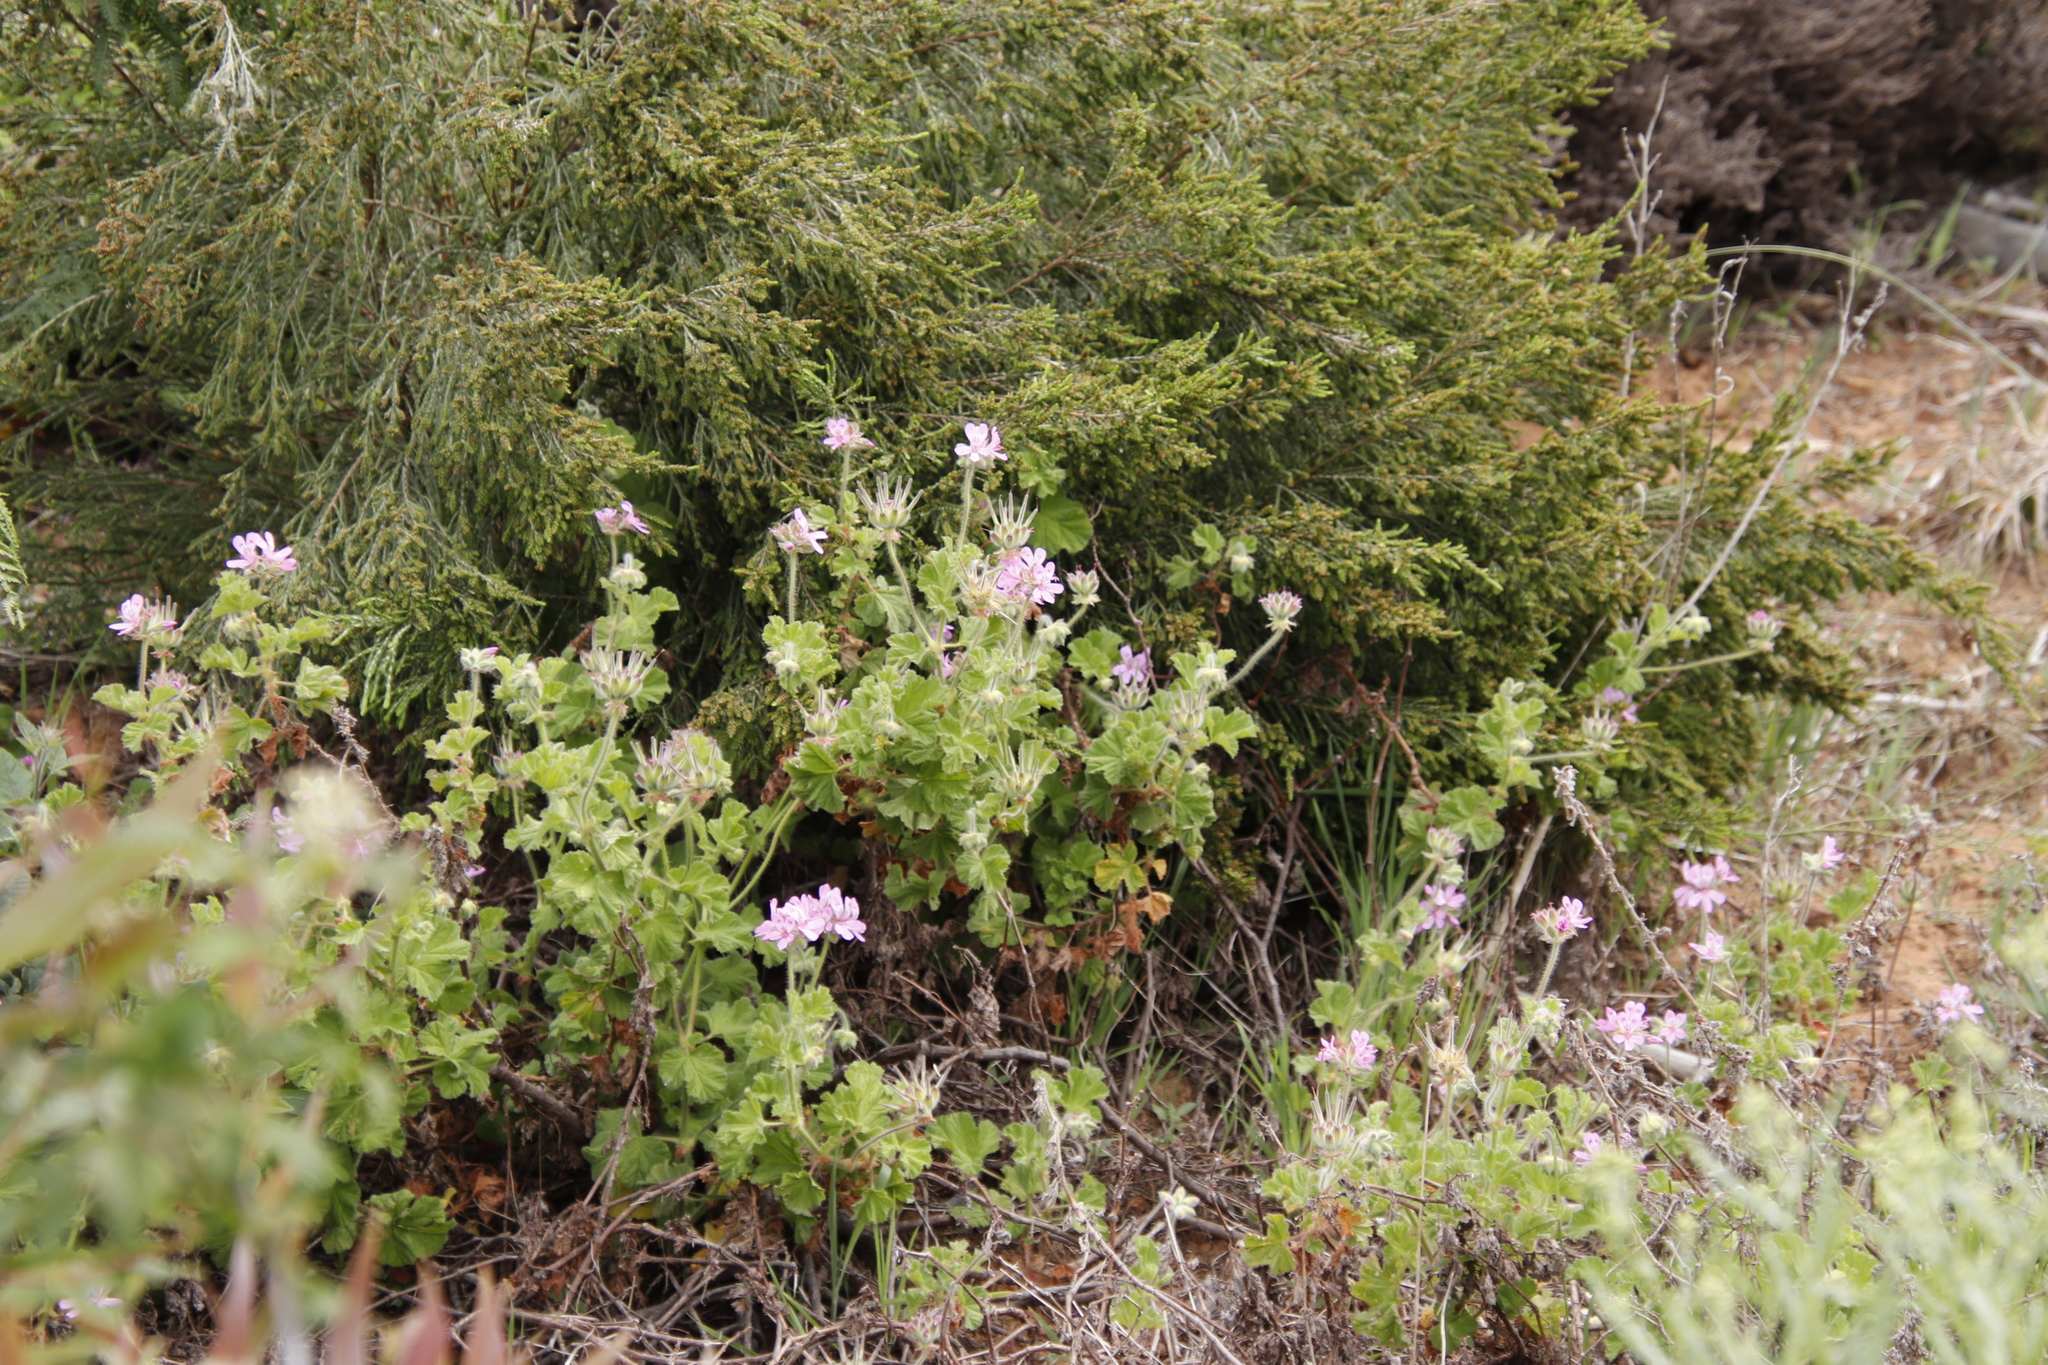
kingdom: Plantae
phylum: Tracheophyta
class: Magnoliopsida
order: Geraniales
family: Geraniaceae
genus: Pelargonium
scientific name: Pelargonium capitatum
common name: Rose scented geranium
